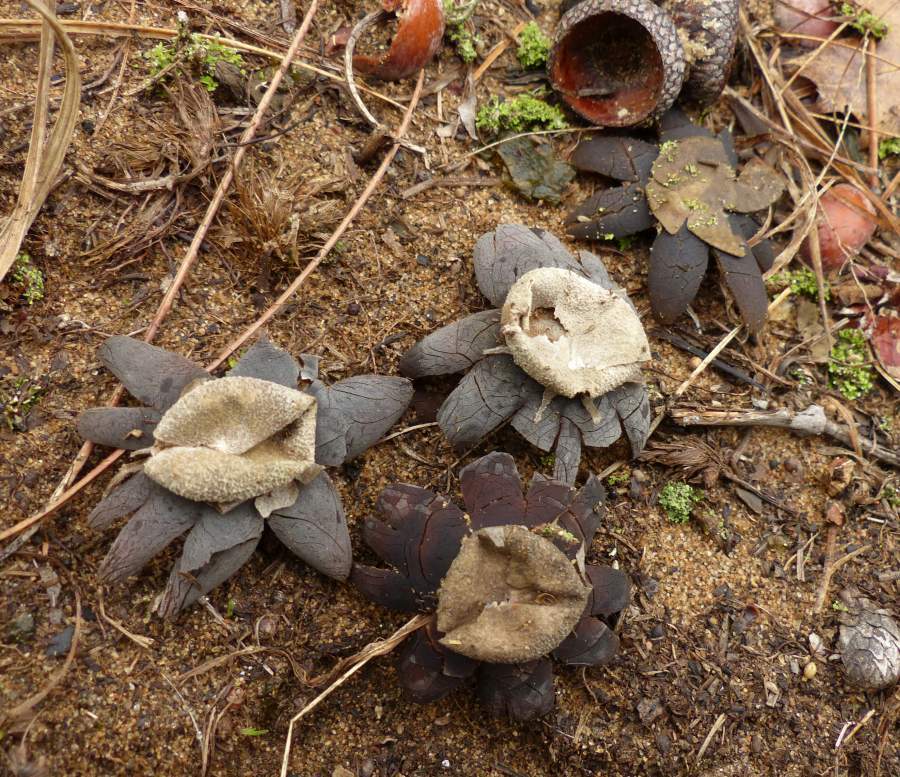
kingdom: Fungi
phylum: Basidiomycota
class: Agaricomycetes
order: Boletales
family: Diplocystidiaceae
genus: Astraeus
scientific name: Astraeus smithii
